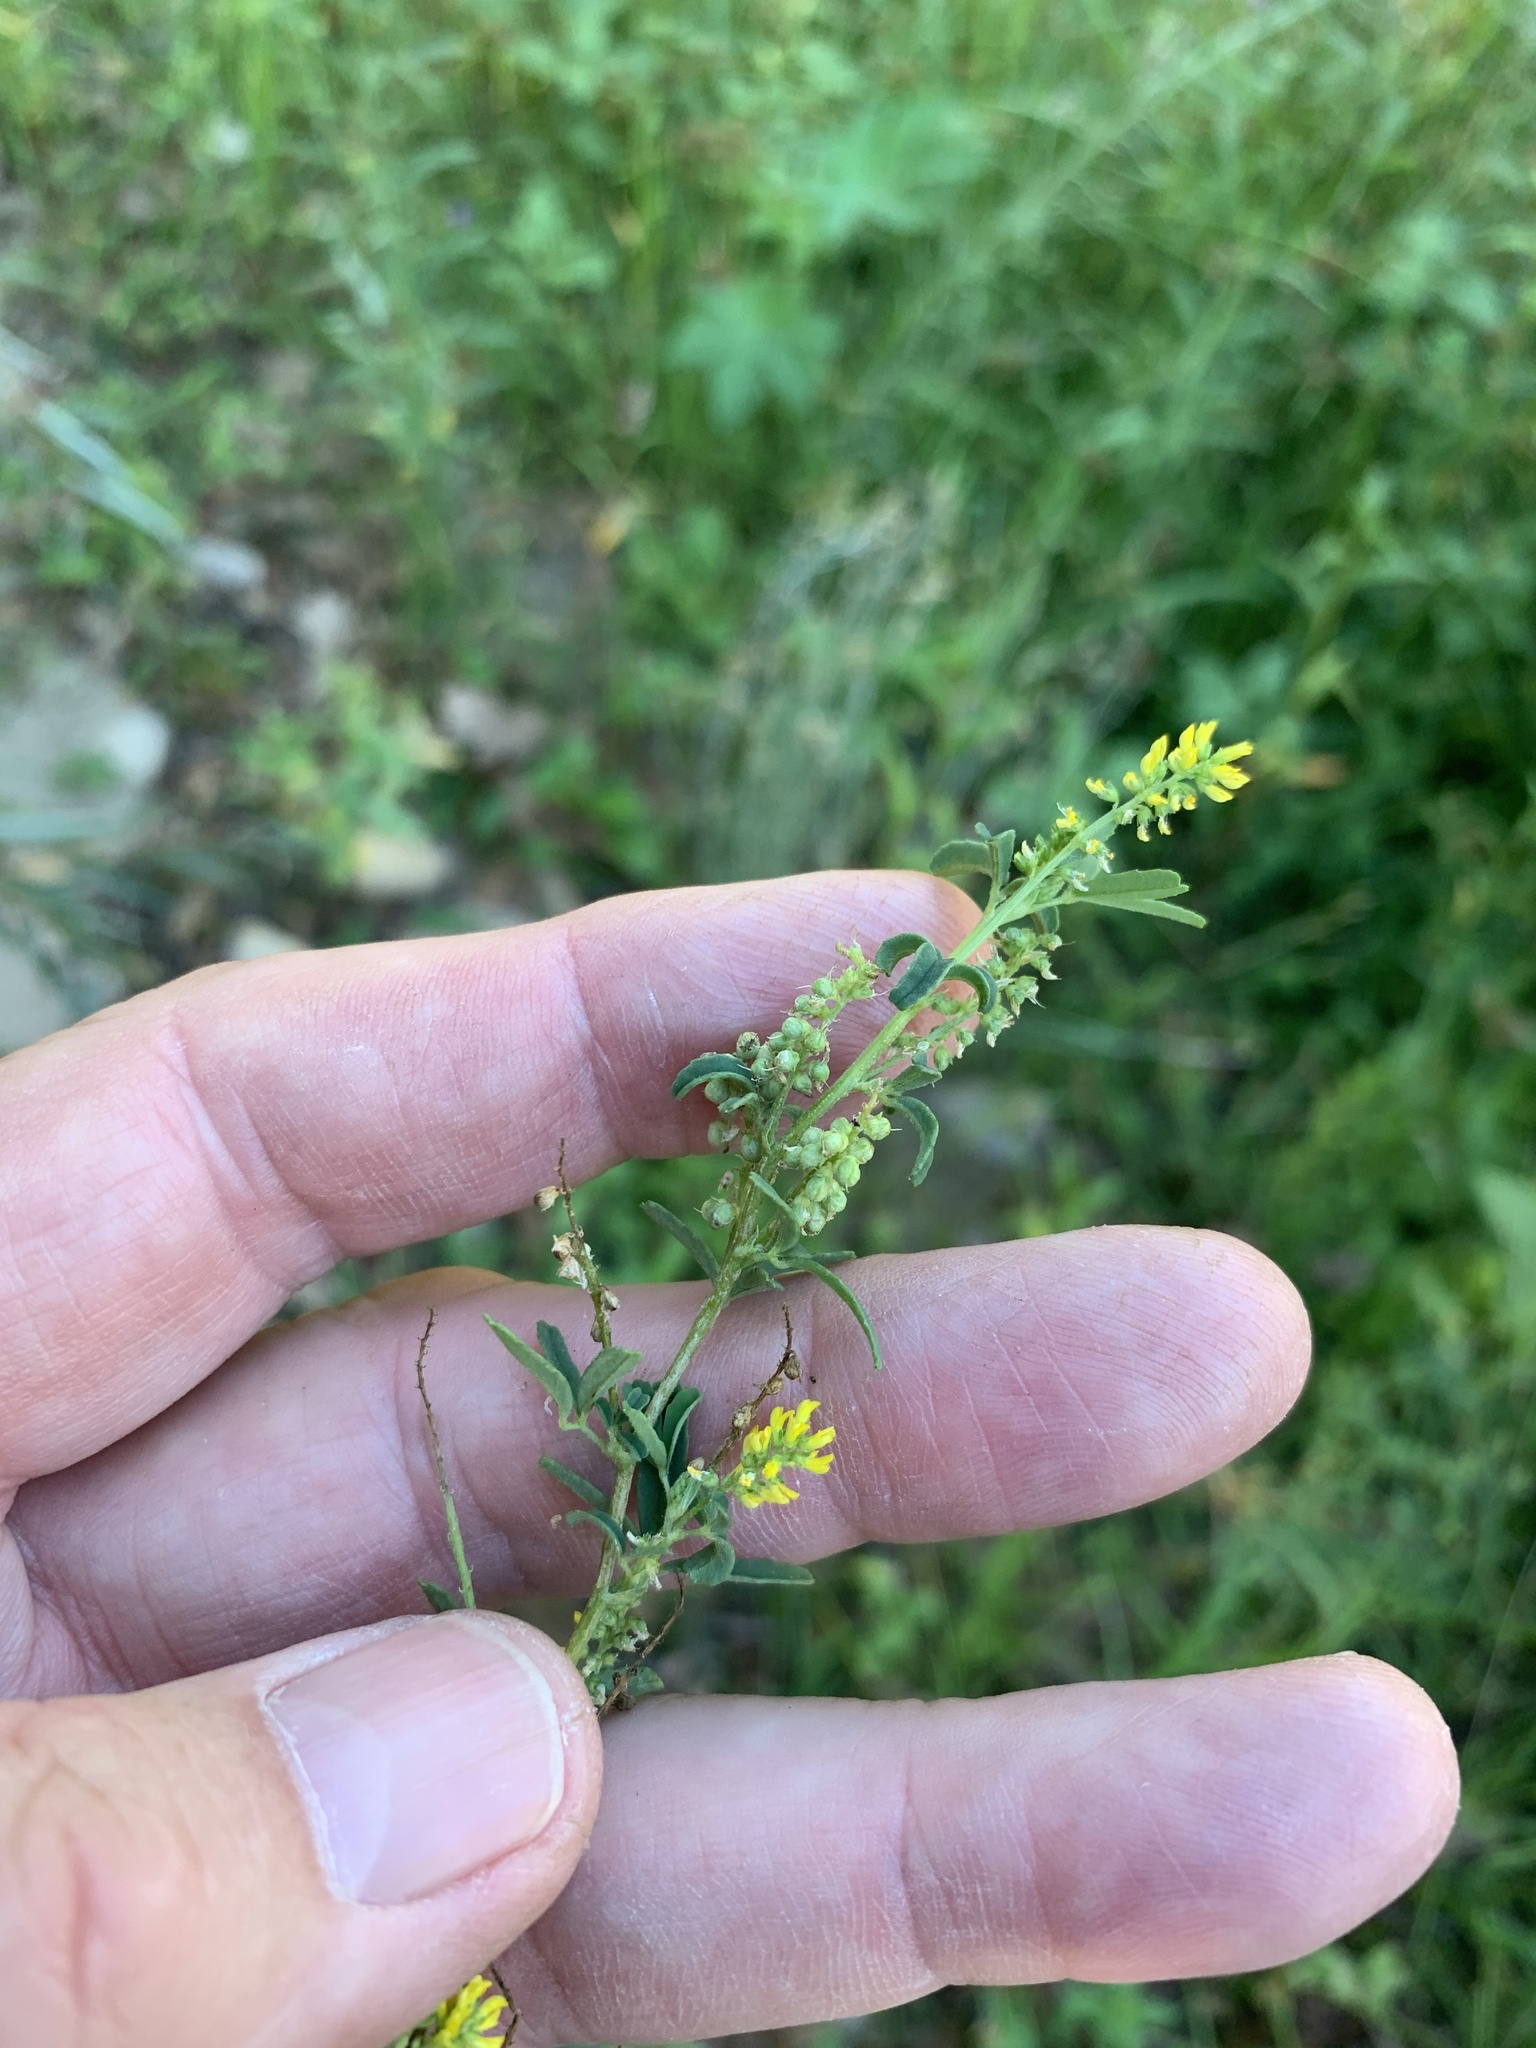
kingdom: Plantae
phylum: Tracheophyta
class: Magnoliopsida
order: Fabales
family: Fabaceae
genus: Melilotus
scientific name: Melilotus indicus
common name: Small melilot
